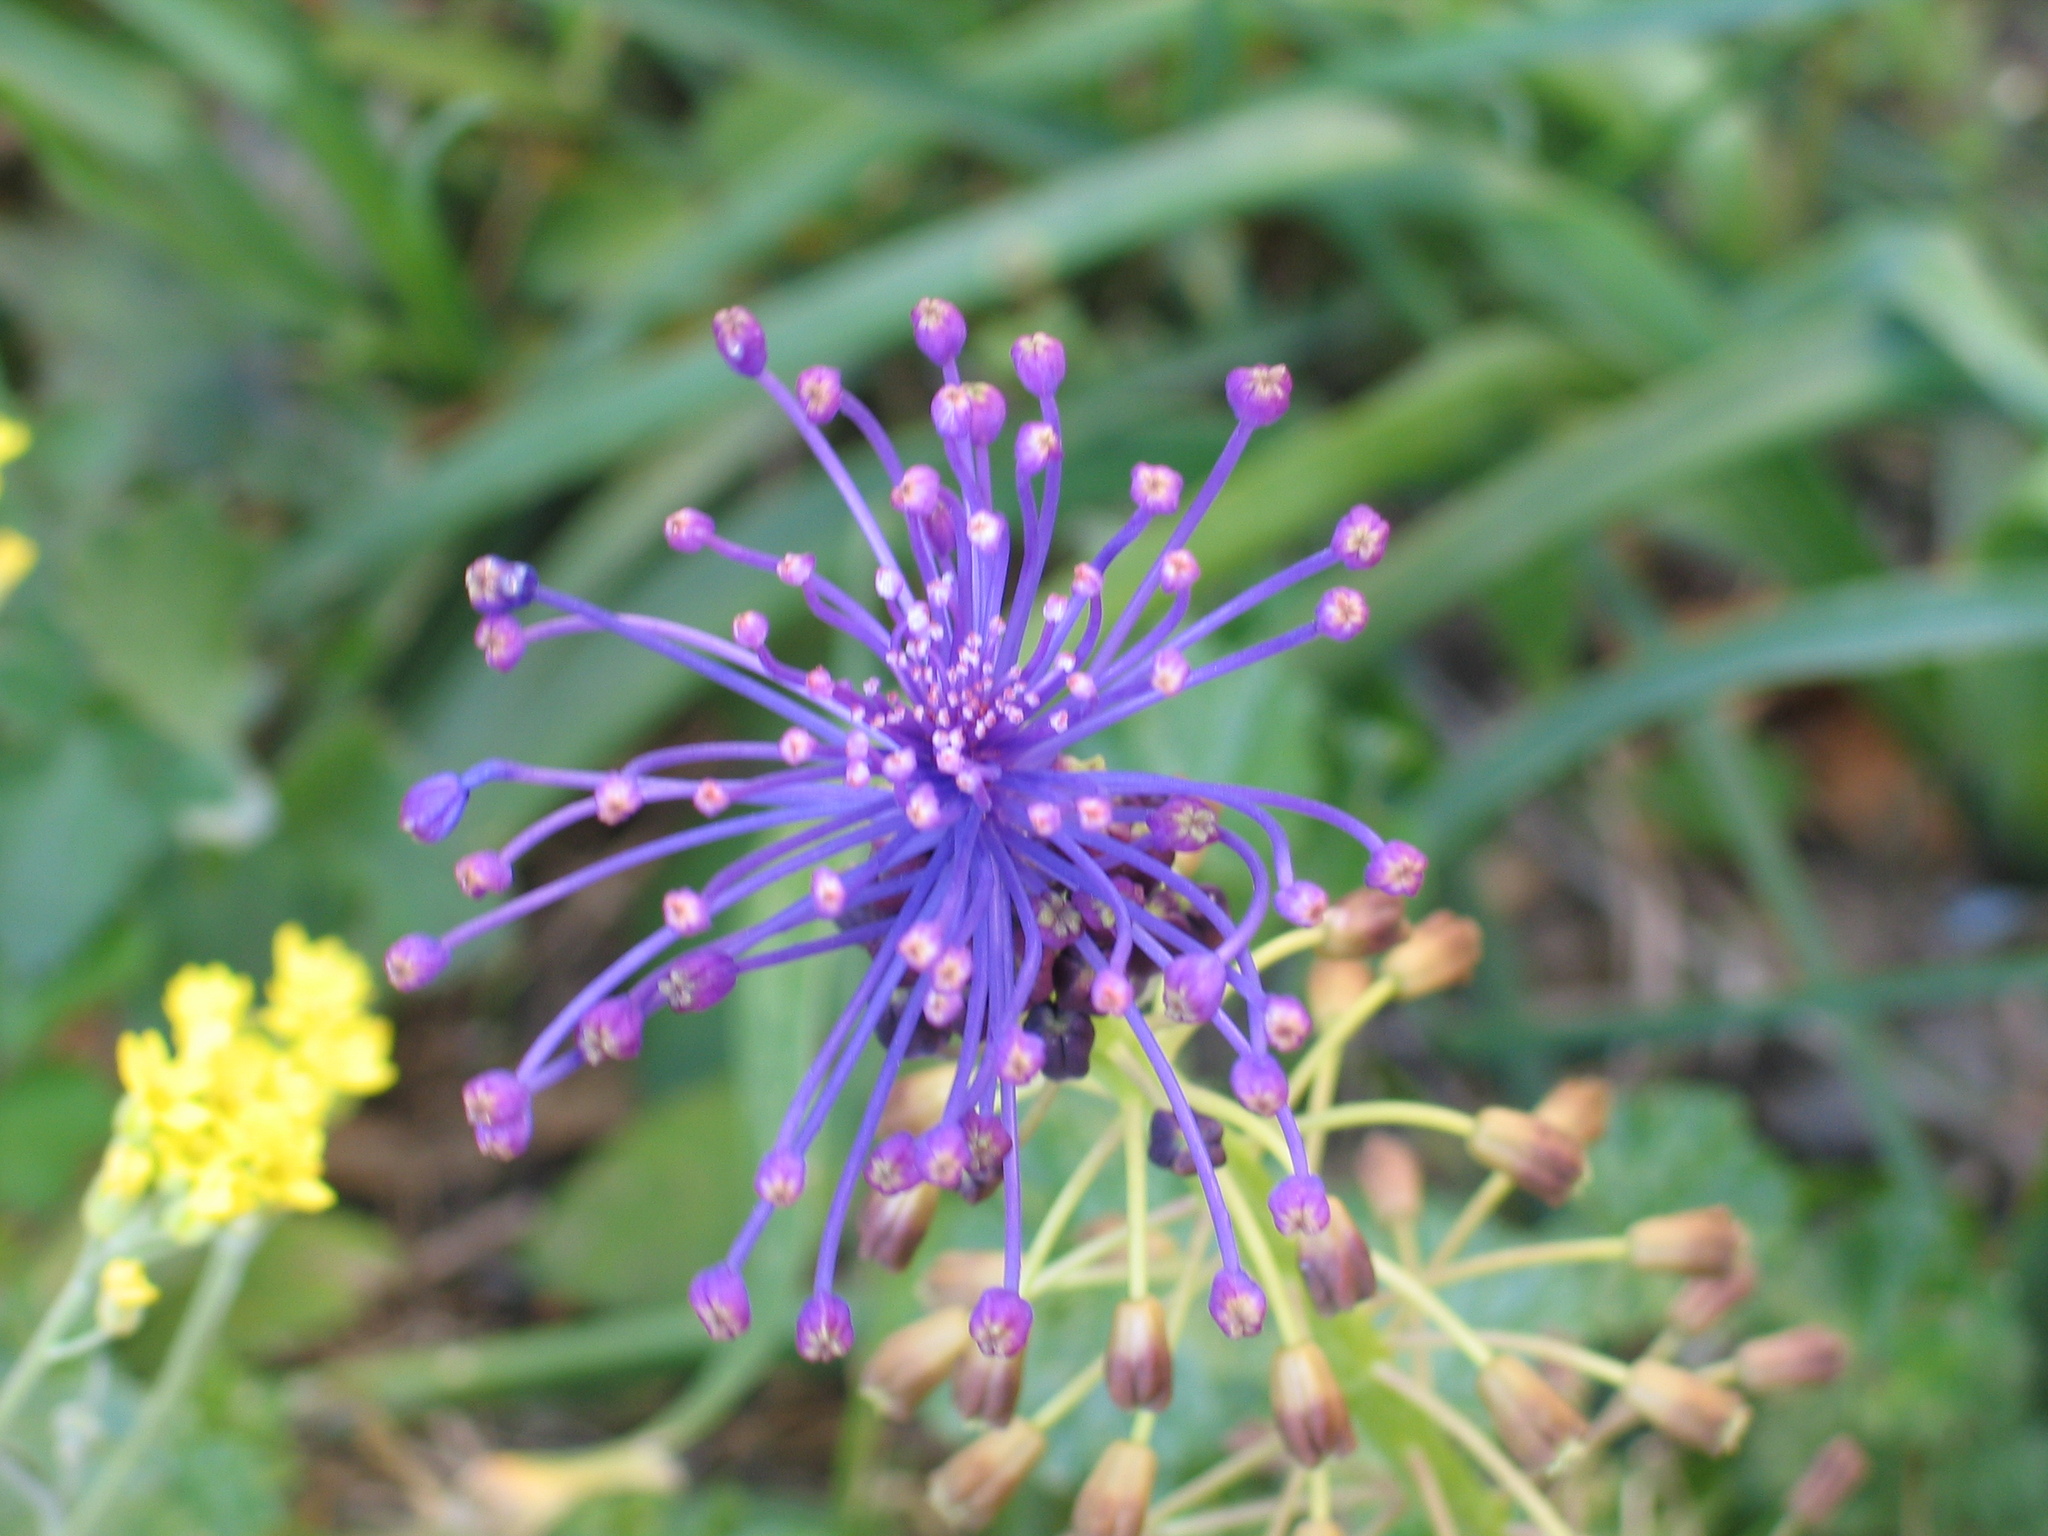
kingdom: Plantae
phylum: Tracheophyta
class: Liliopsida
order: Asparagales
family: Asparagaceae
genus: Muscari
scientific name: Muscari comosum
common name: Tassel hyacinth
